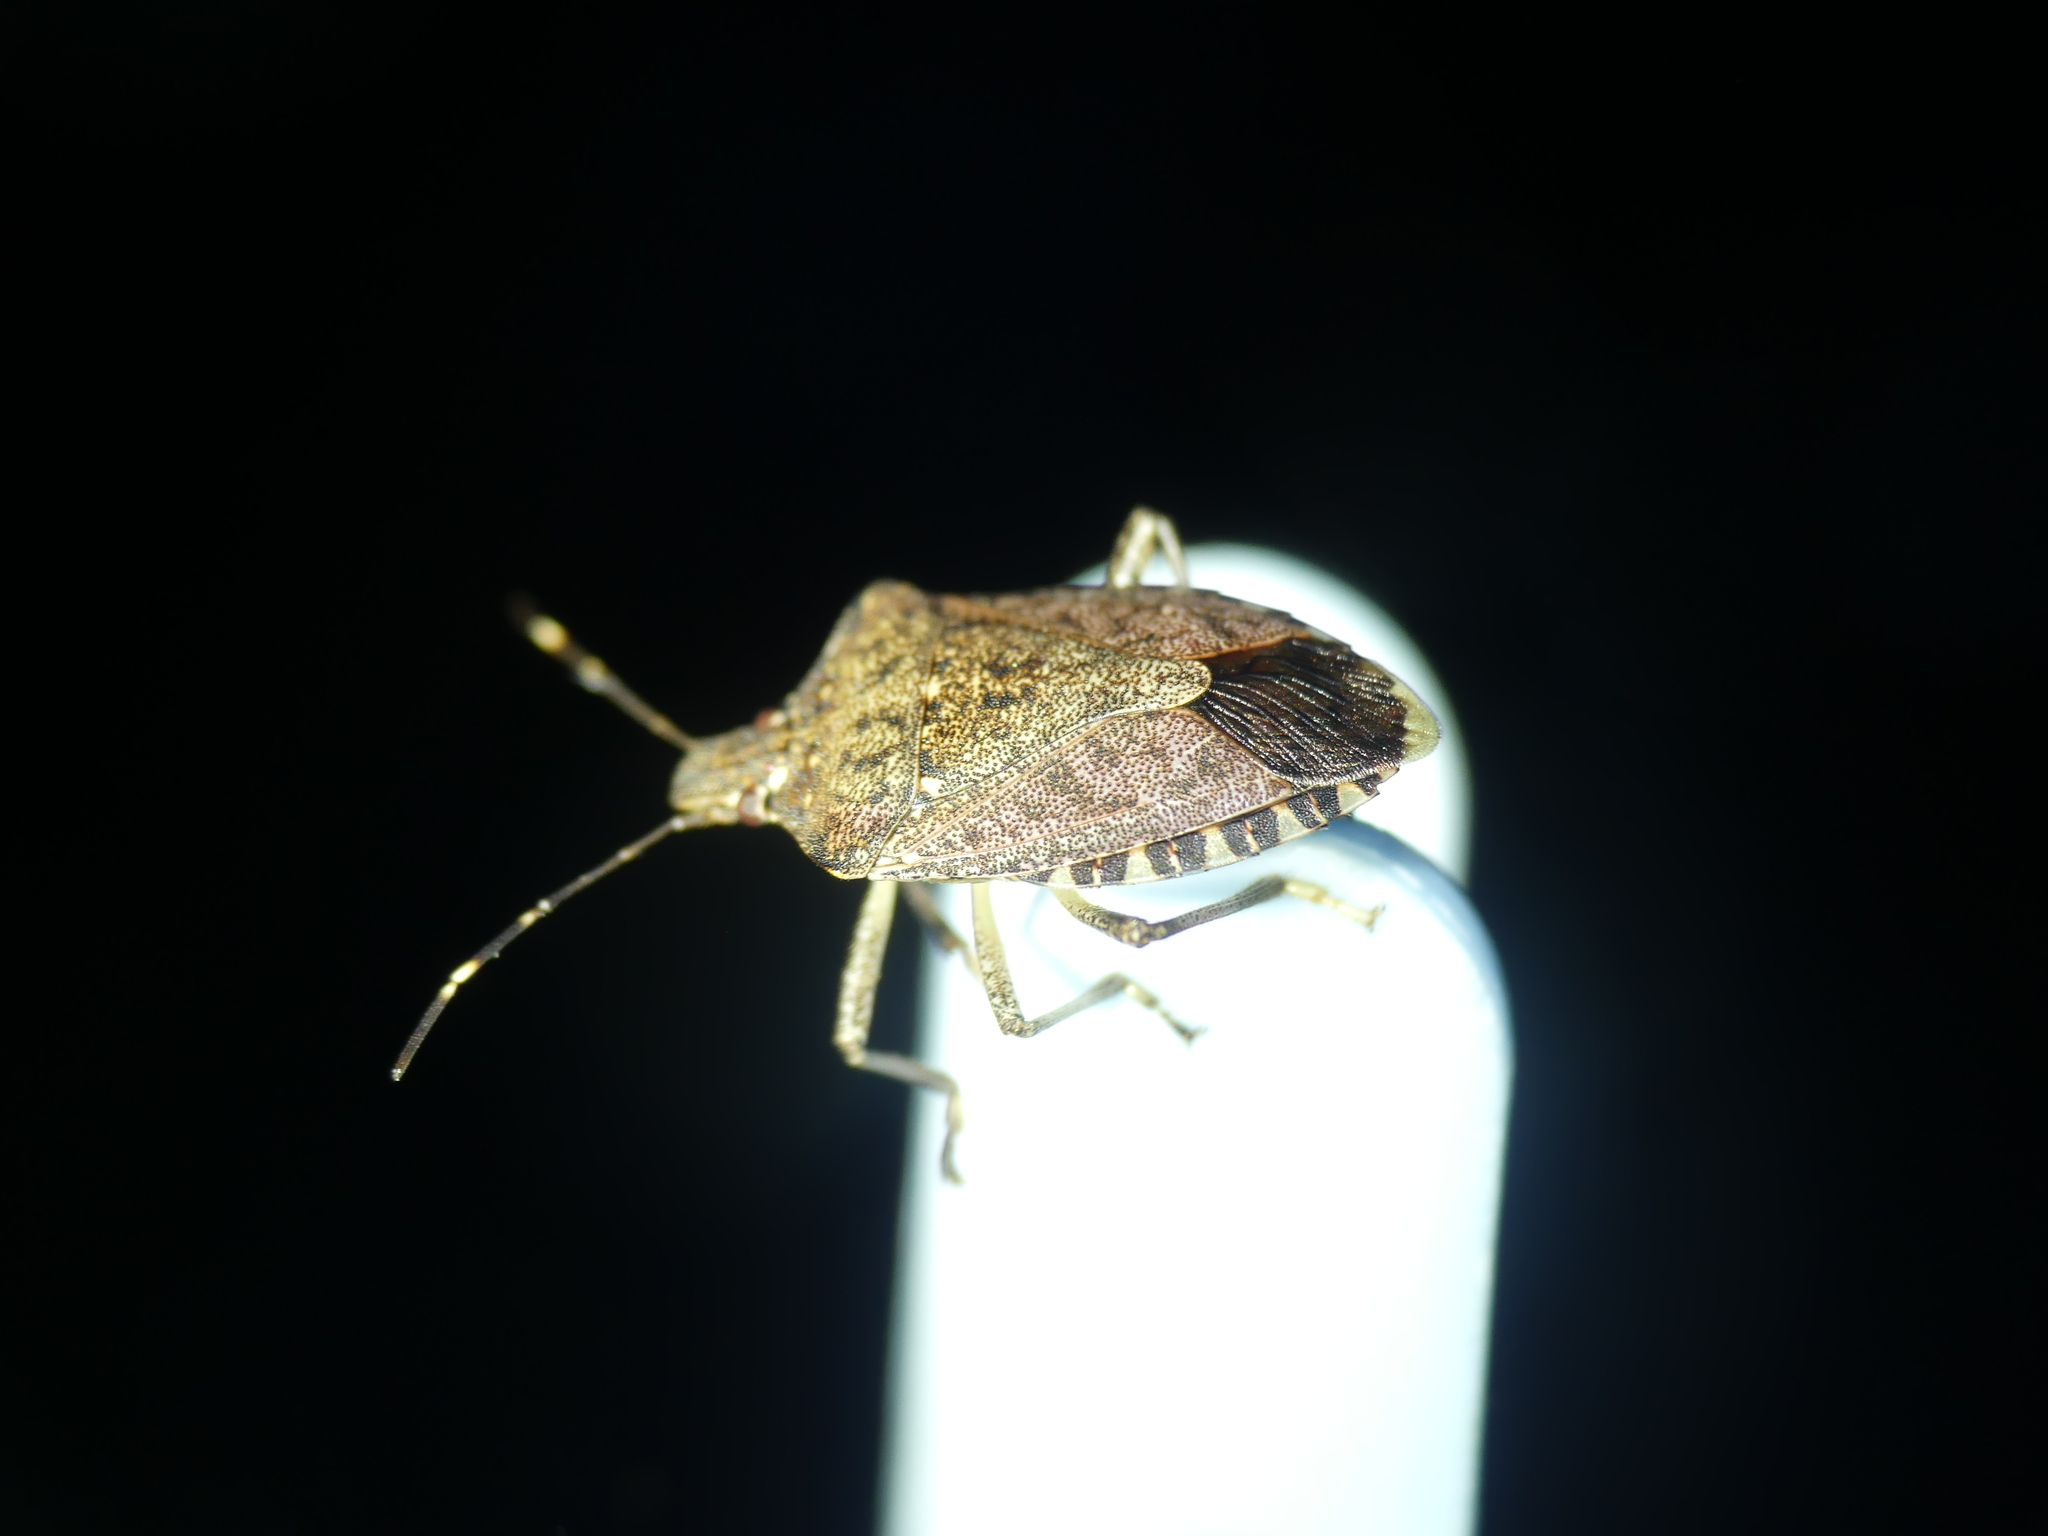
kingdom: Animalia
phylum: Arthropoda
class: Insecta
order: Hemiptera
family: Pentatomidae
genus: Halyomorpha
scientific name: Halyomorpha halys
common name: Brown marmorated stink bug
